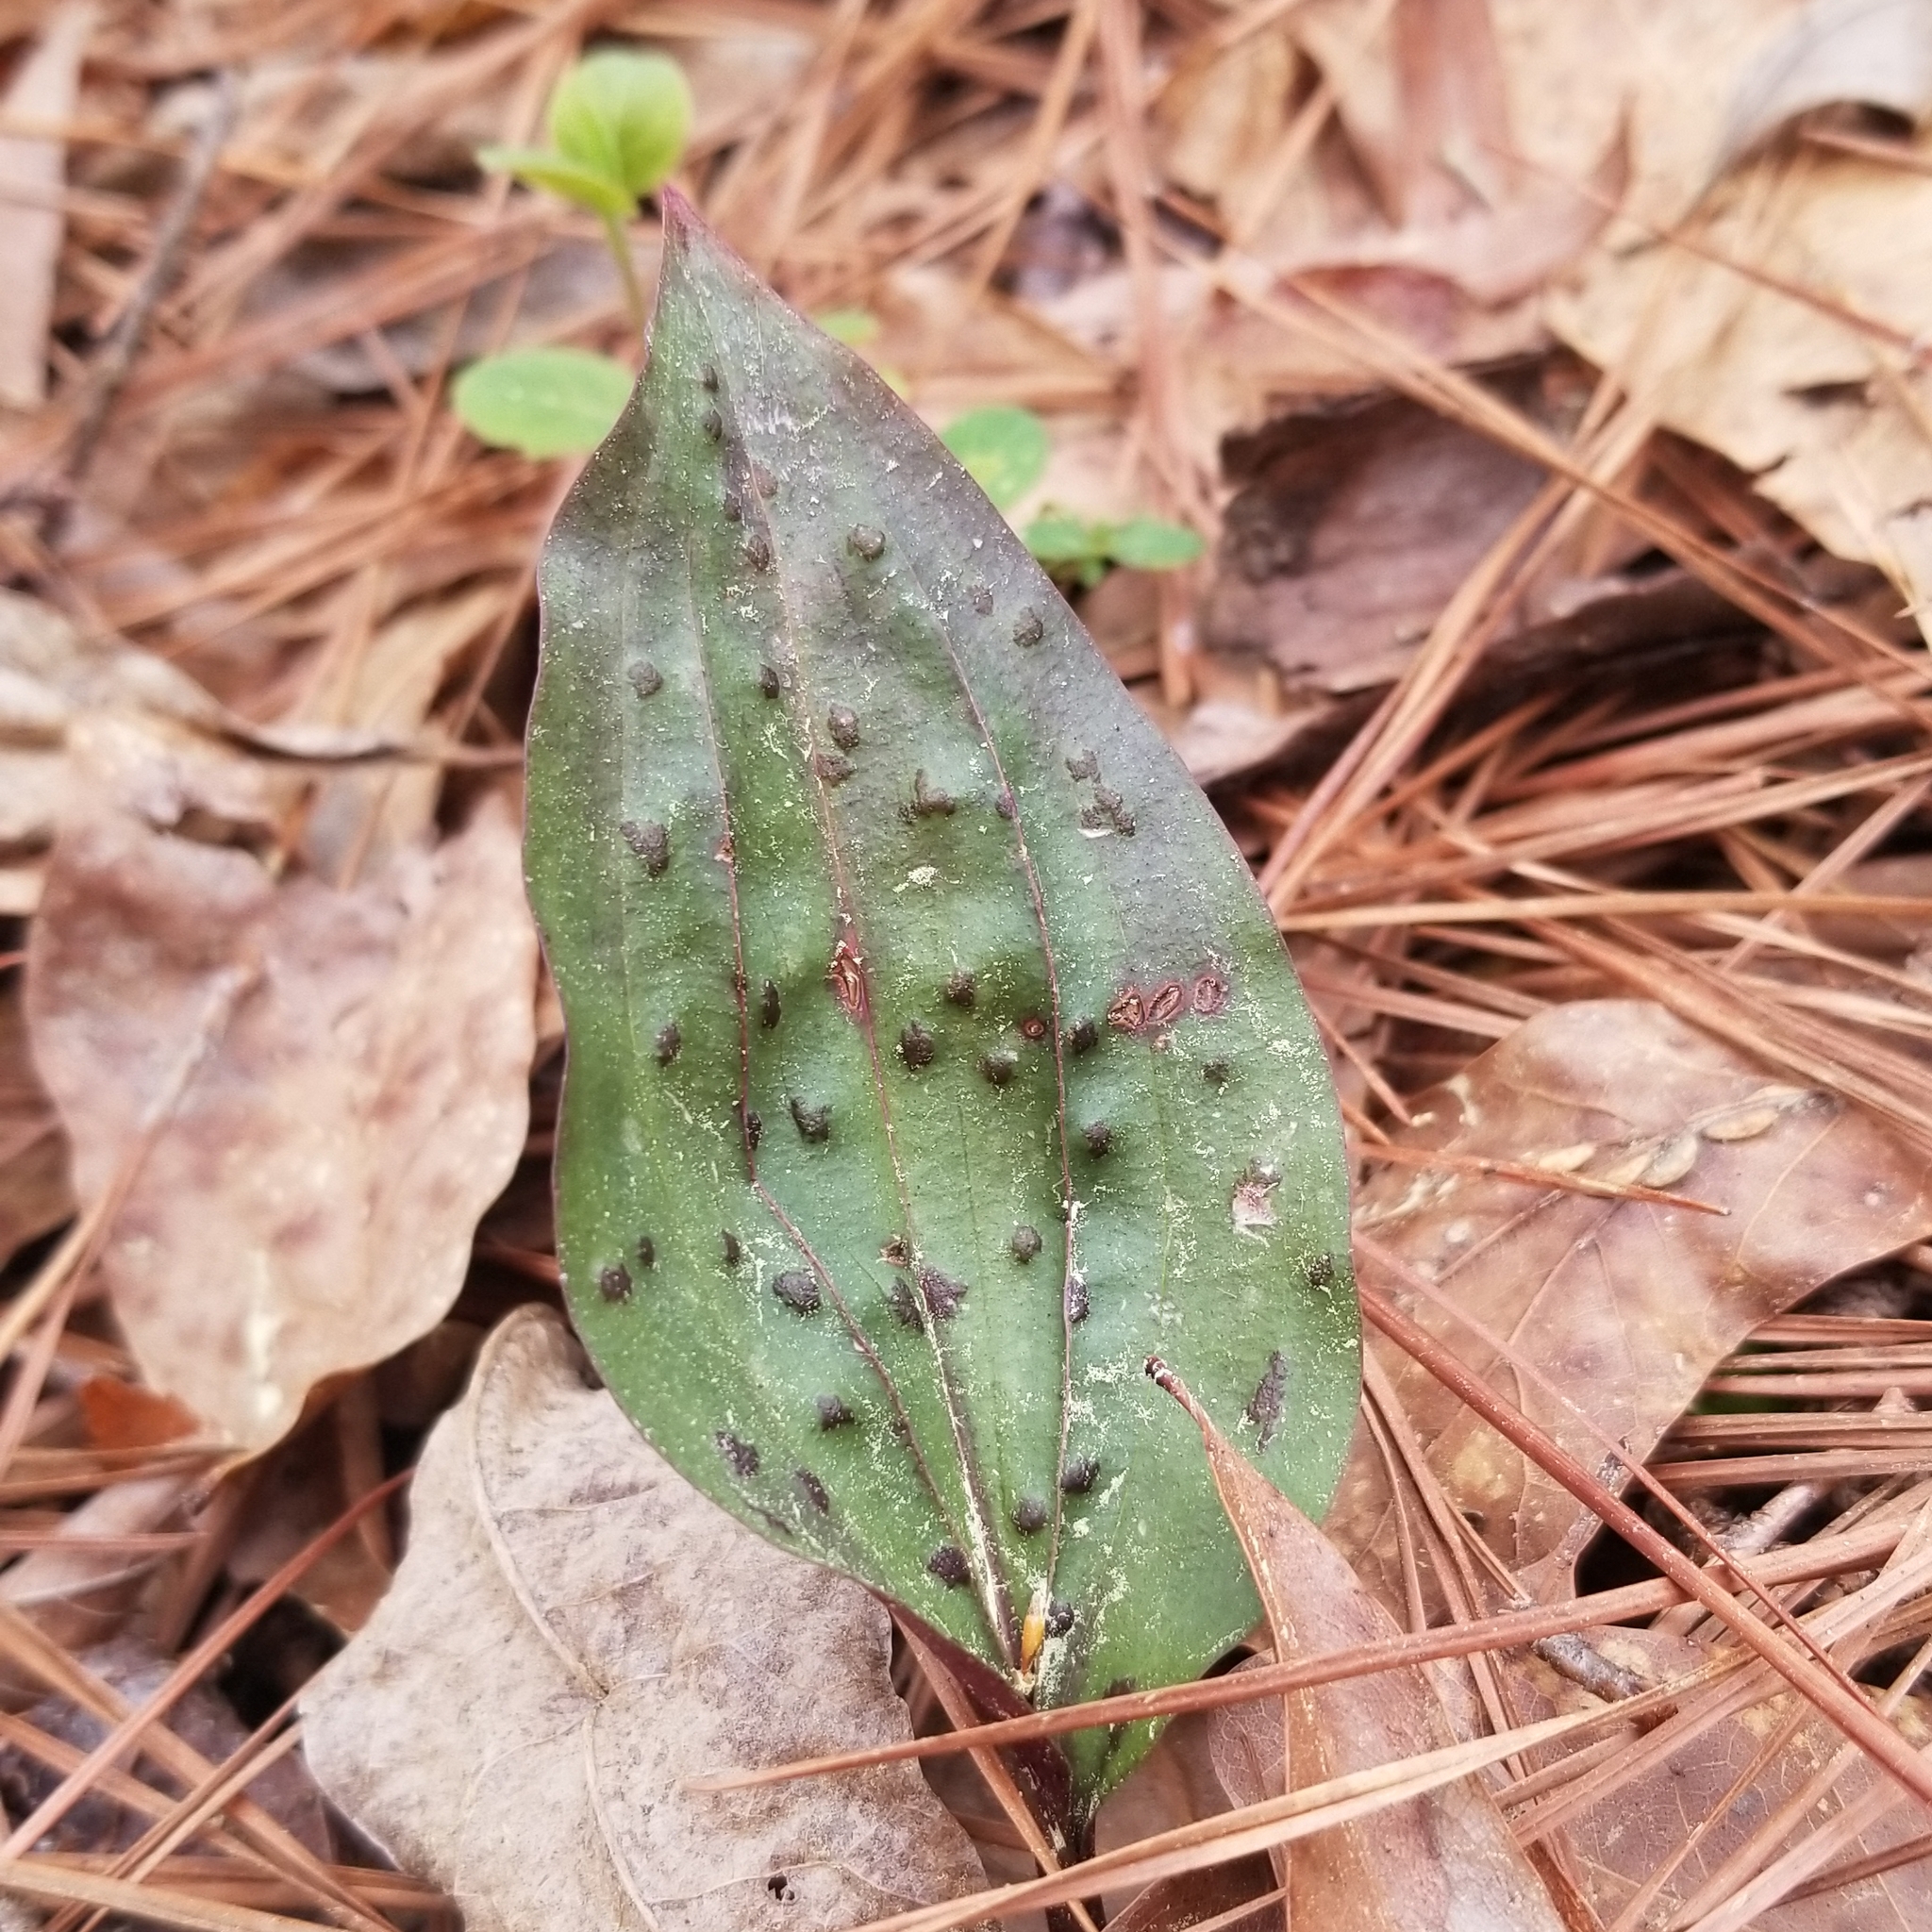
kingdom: Plantae
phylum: Tracheophyta
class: Liliopsida
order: Asparagales
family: Orchidaceae
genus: Tipularia
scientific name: Tipularia discolor
